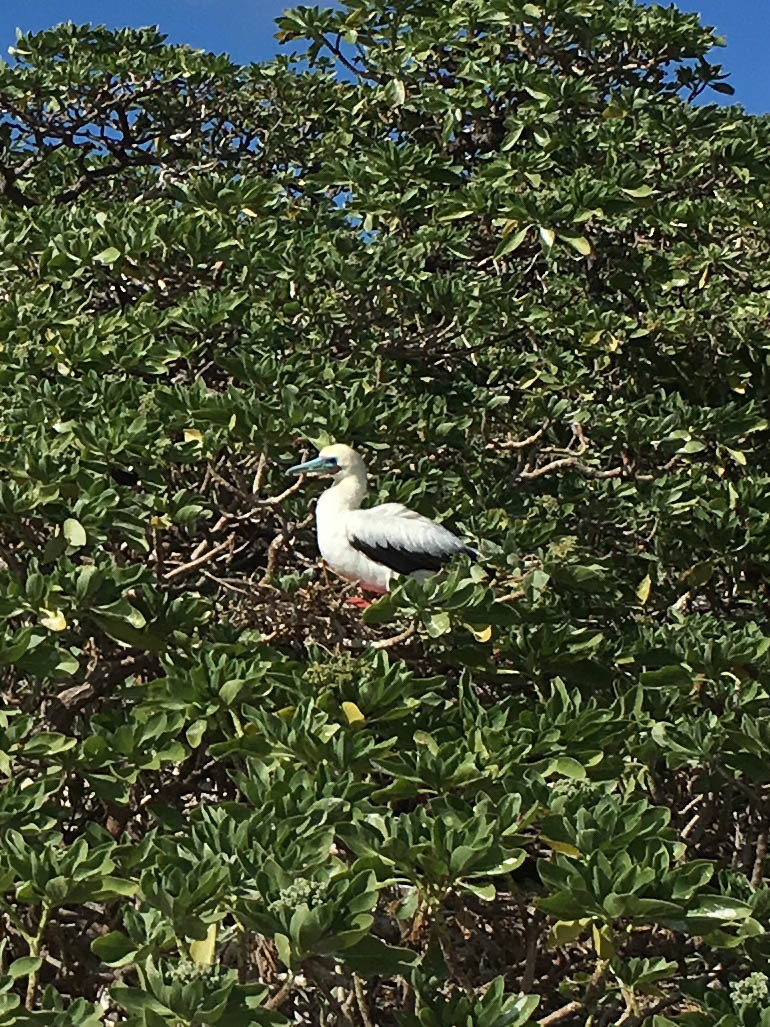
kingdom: Animalia
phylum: Chordata
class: Aves
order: Suliformes
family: Sulidae
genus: Sula
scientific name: Sula sula
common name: Red-footed booby
